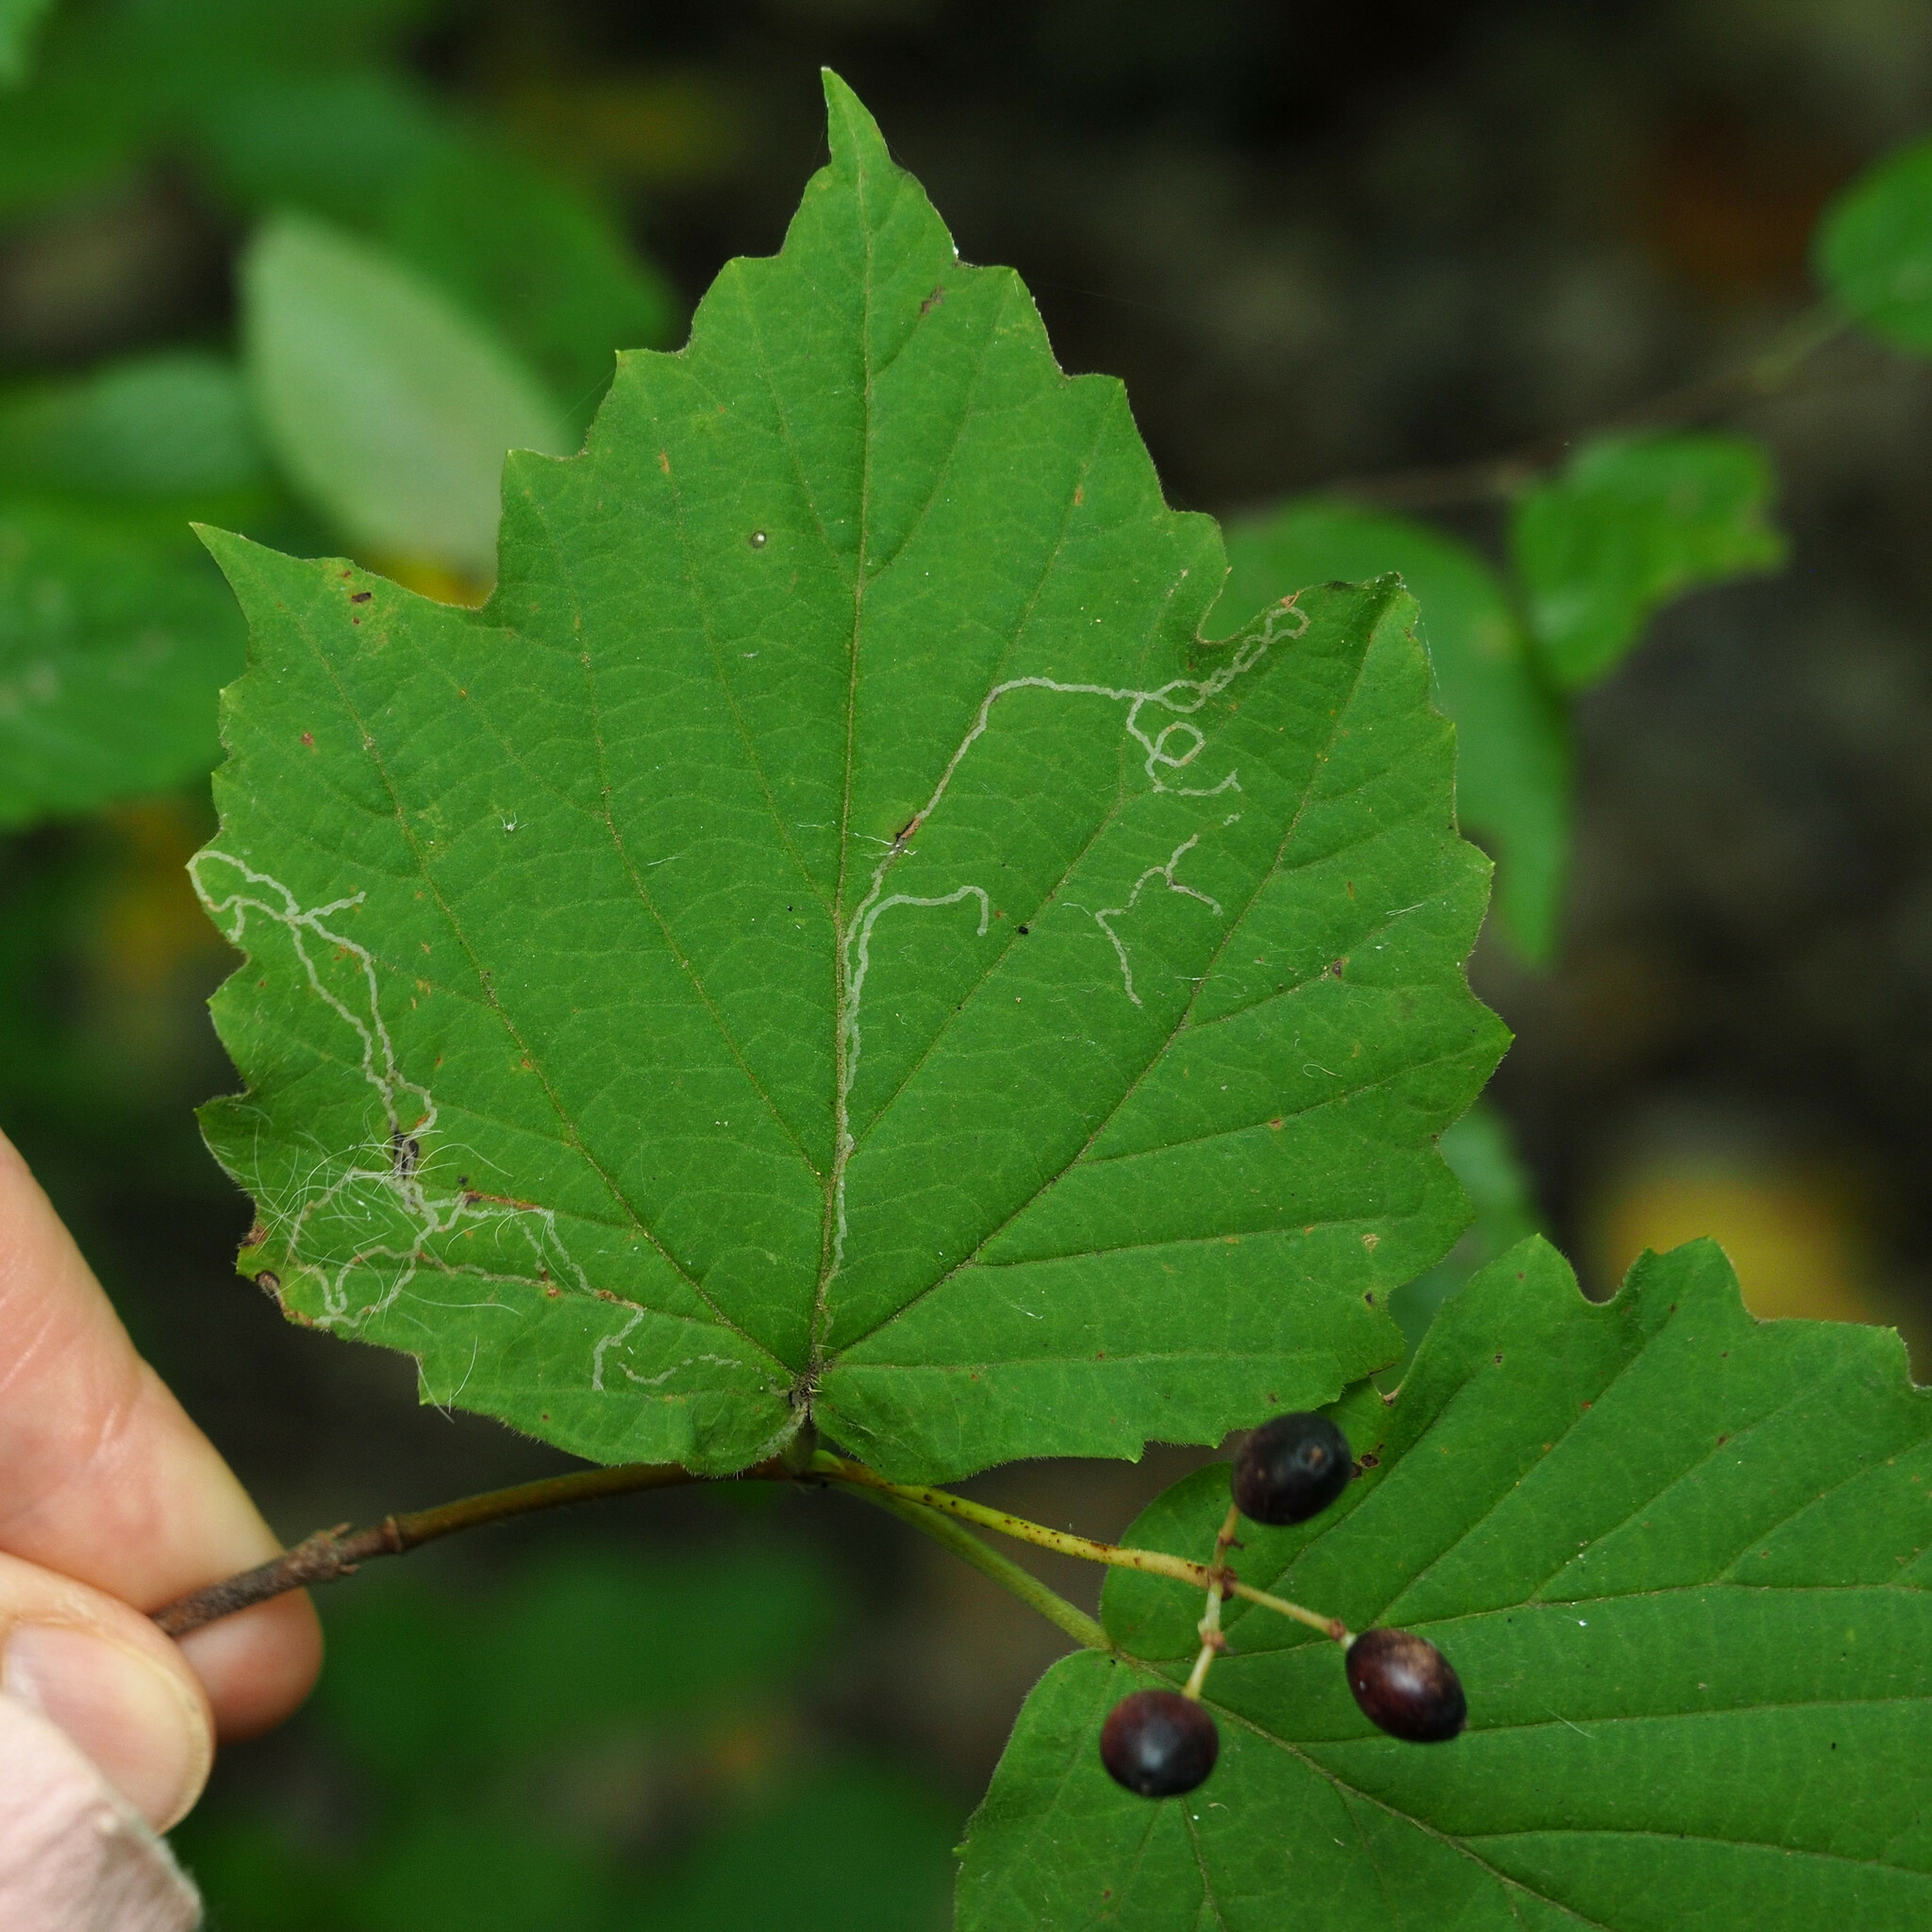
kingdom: Animalia
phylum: Arthropoda
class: Insecta
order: Lepidoptera
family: Gracillariidae
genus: Marmara
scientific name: Marmara viburnella
